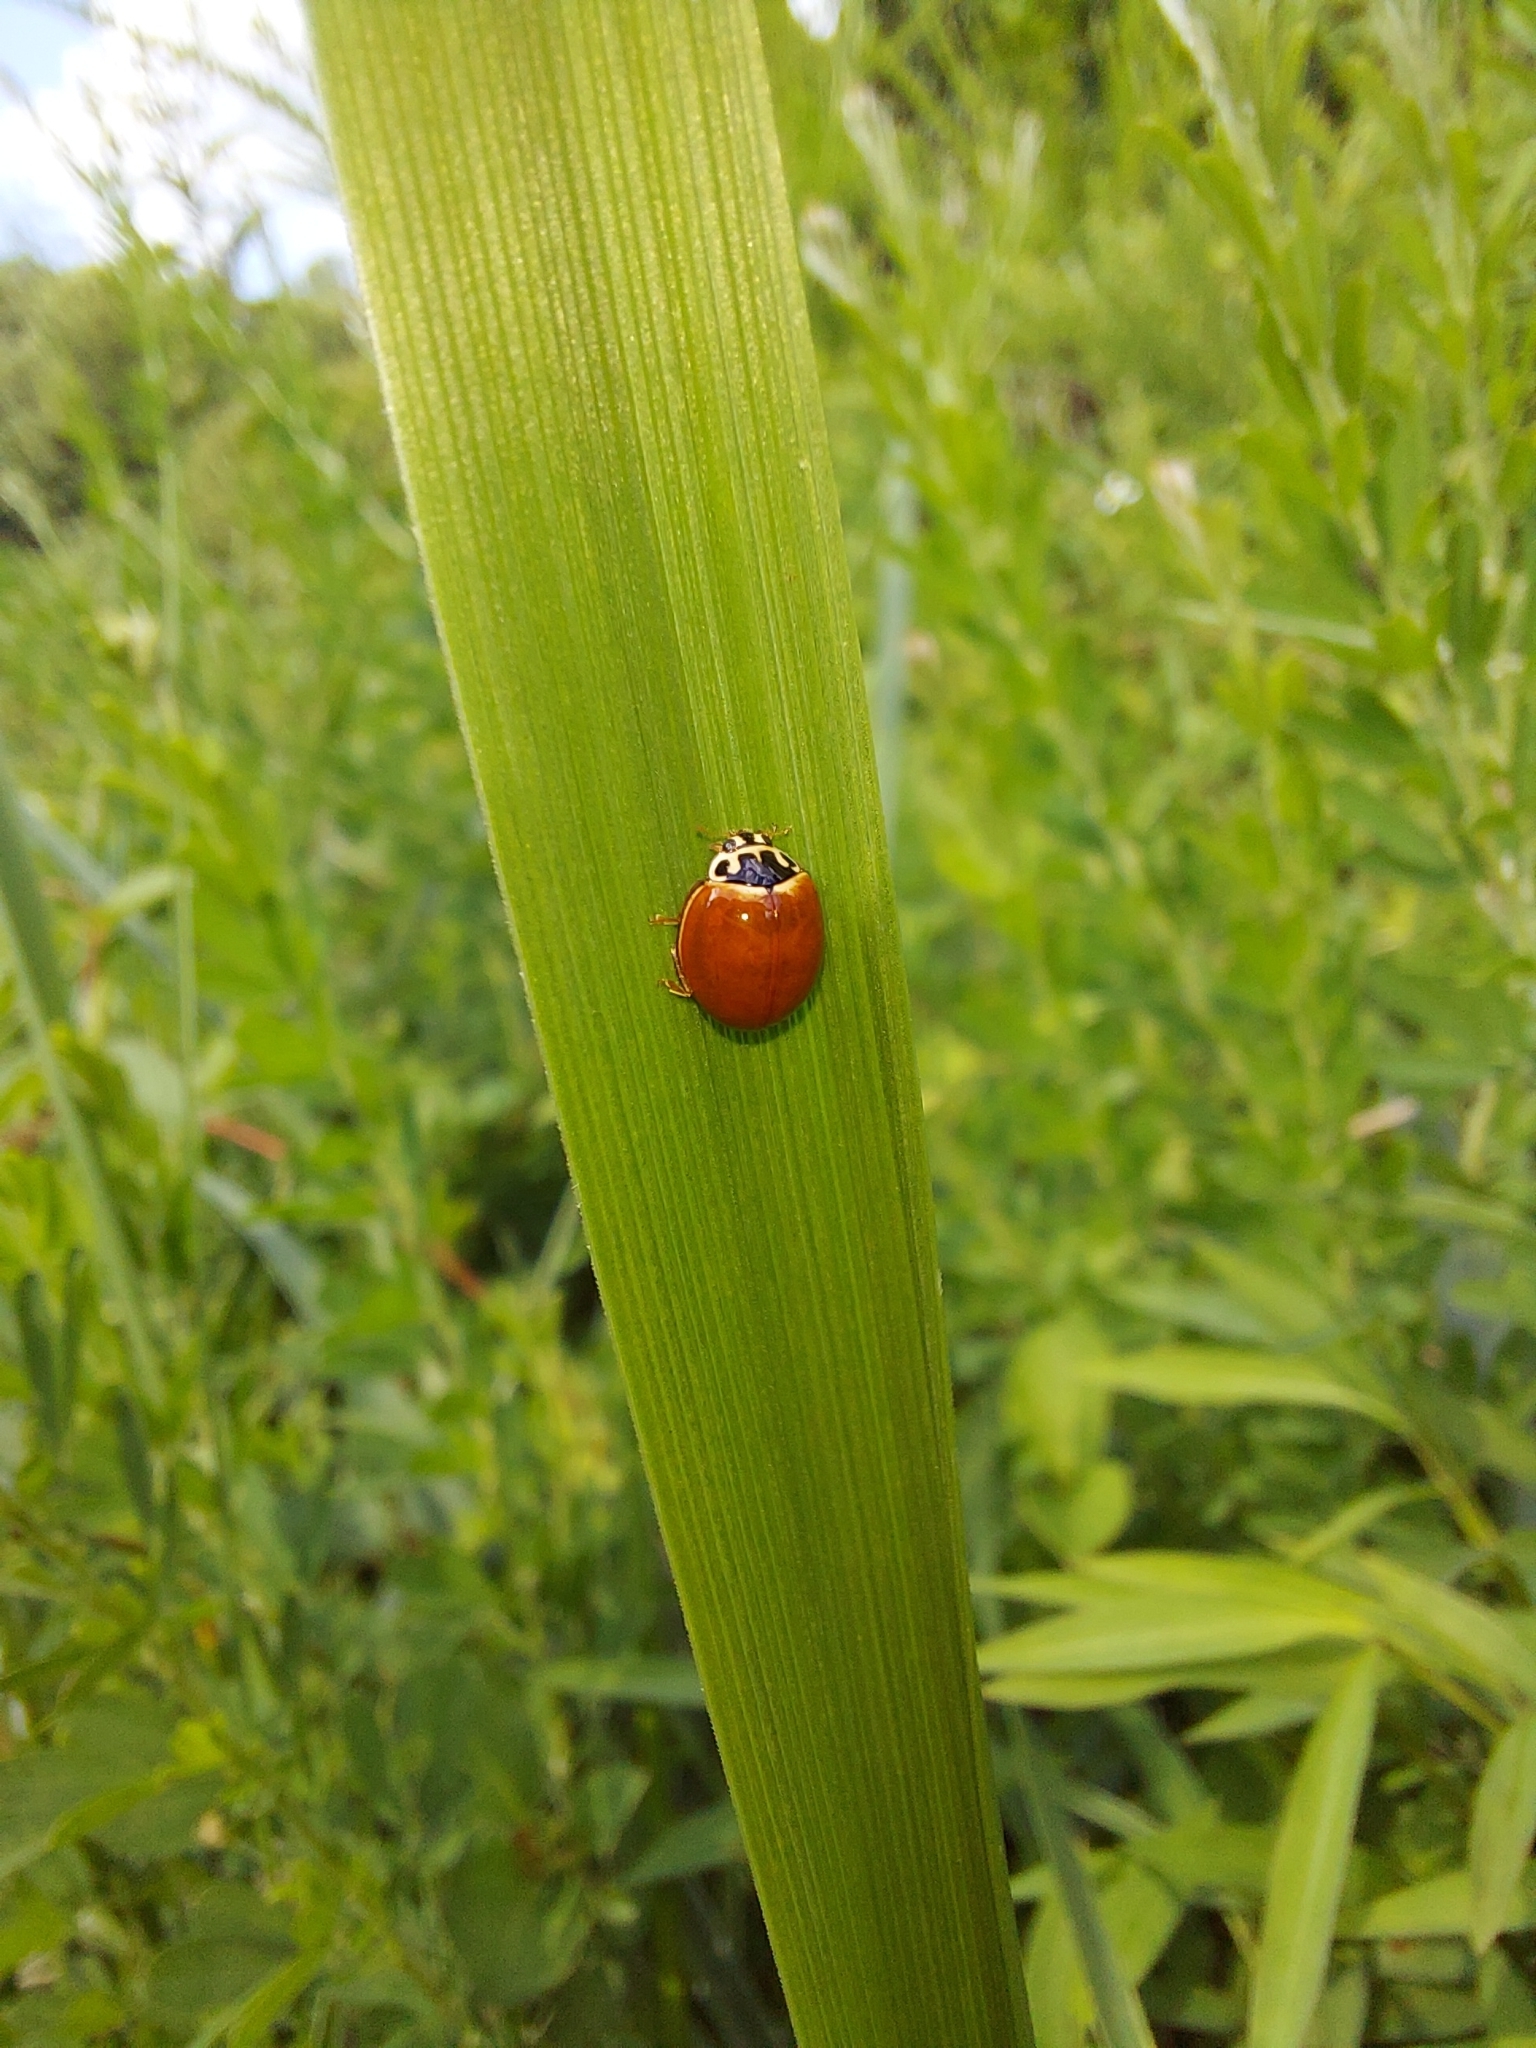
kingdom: Animalia
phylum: Arthropoda
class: Insecta
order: Coleoptera
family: Coccinellidae
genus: Cycloneda
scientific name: Cycloneda munda
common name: Polished lady beetle
